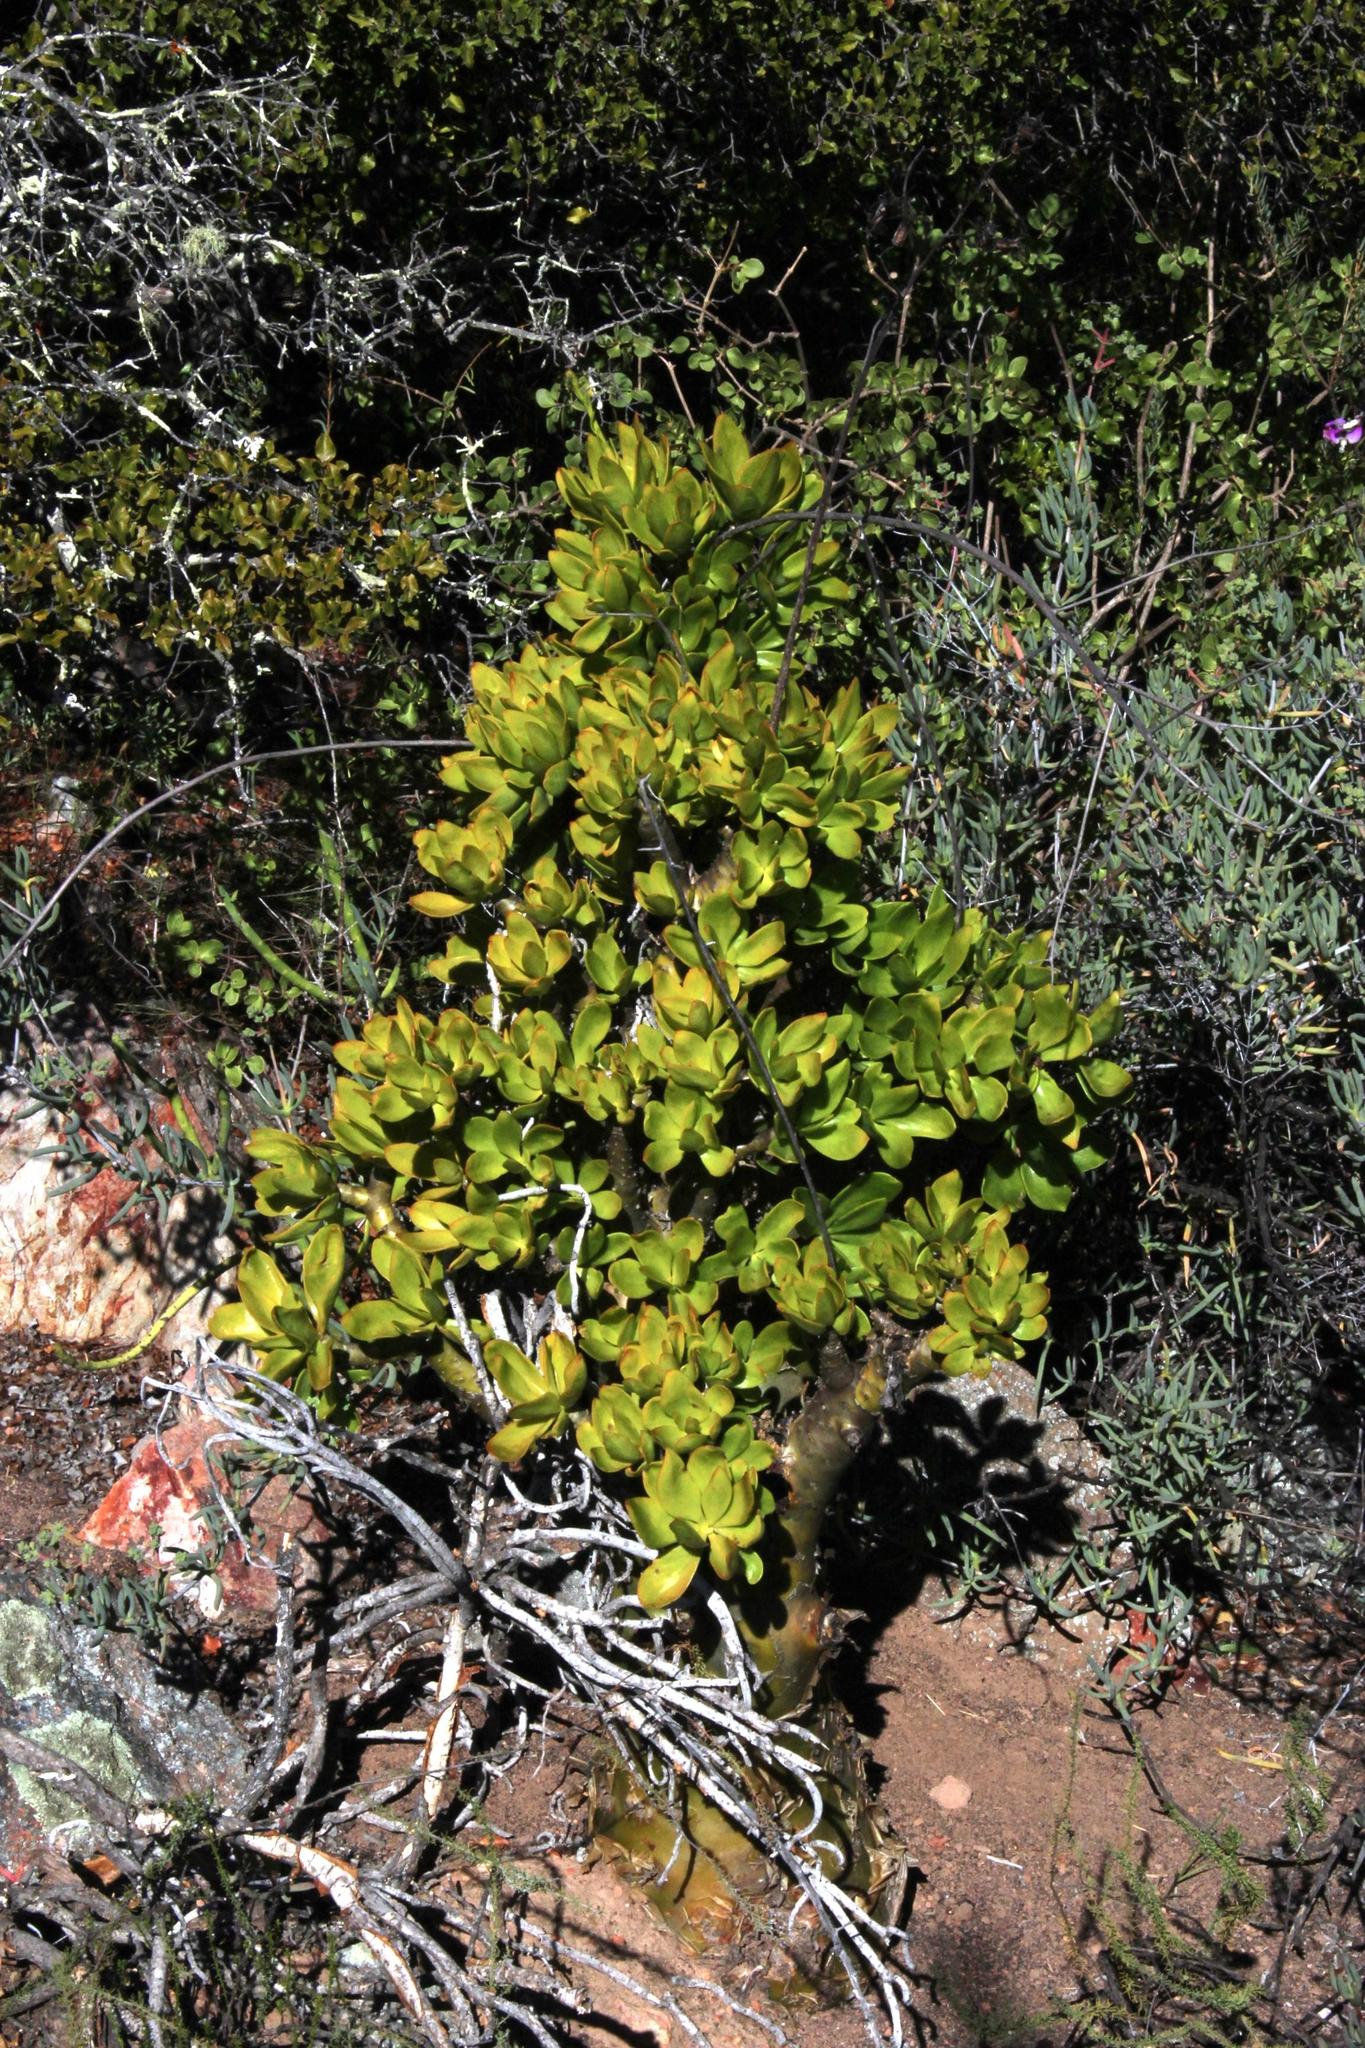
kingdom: Plantae
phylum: Tracheophyta
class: Magnoliopsida
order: Saxifragales
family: Crassulaceae
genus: Tylecodon
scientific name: Tylecodon paniculatus
